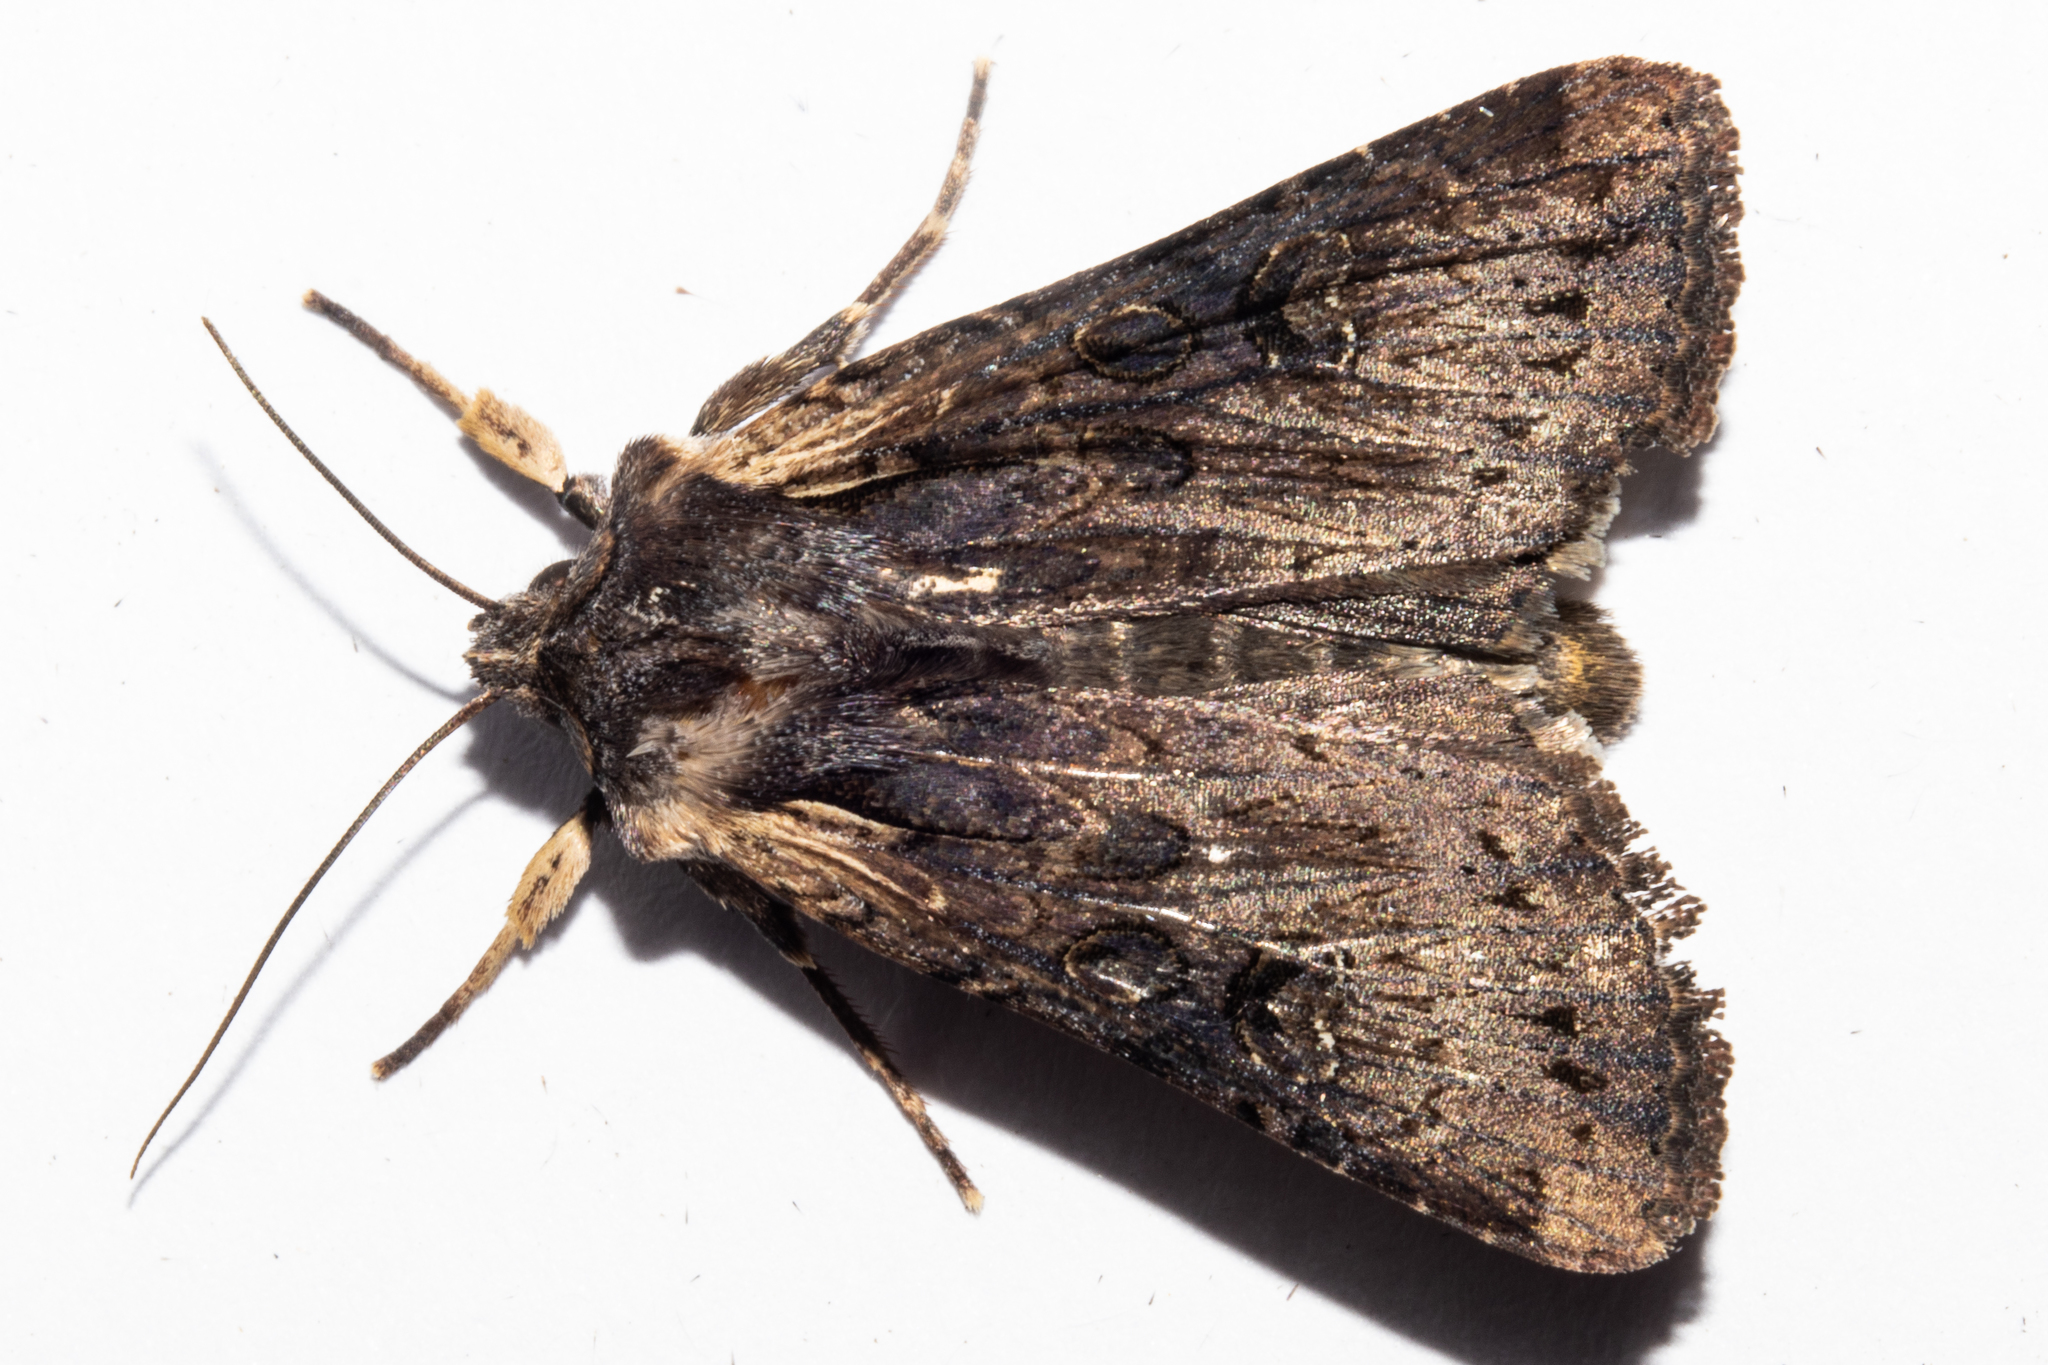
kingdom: Animalia
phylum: Arthropoda
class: Insecta
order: Lepidoptera
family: Noctuidae
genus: Ichneutica
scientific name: Ichneutica omoplaca
